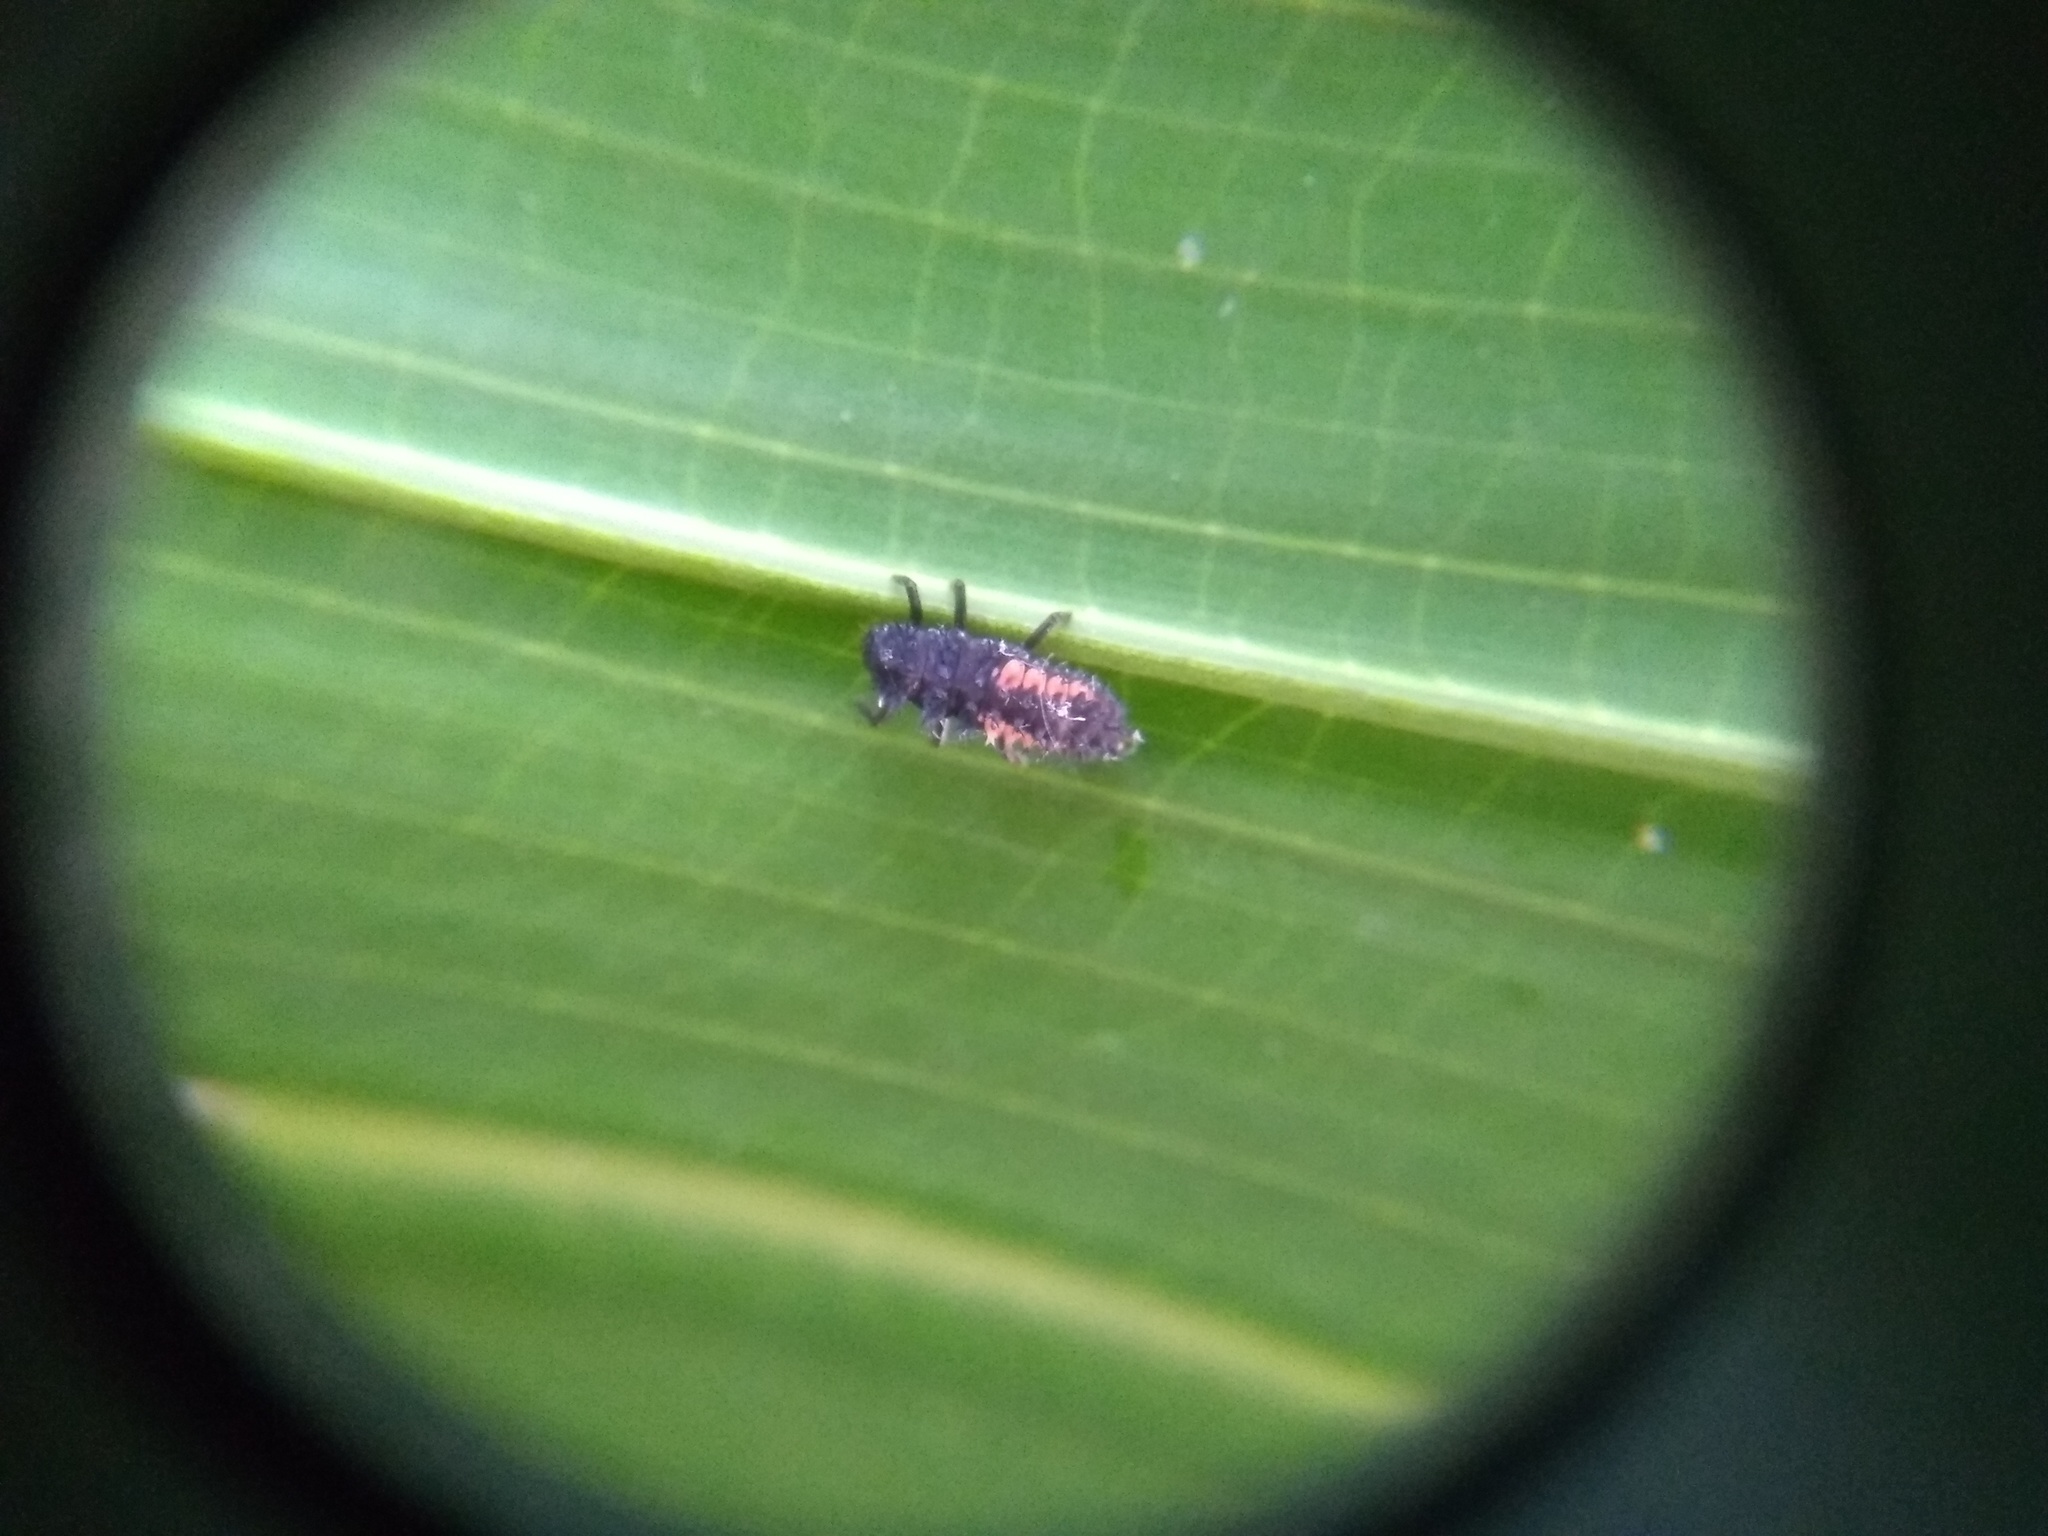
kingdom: Animalia
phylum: Arthropoda
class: Insecta
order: Coleoptera
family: Coccinellidae
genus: Harmonia
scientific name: Harmonia axyridis
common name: Harlequin ladybird
